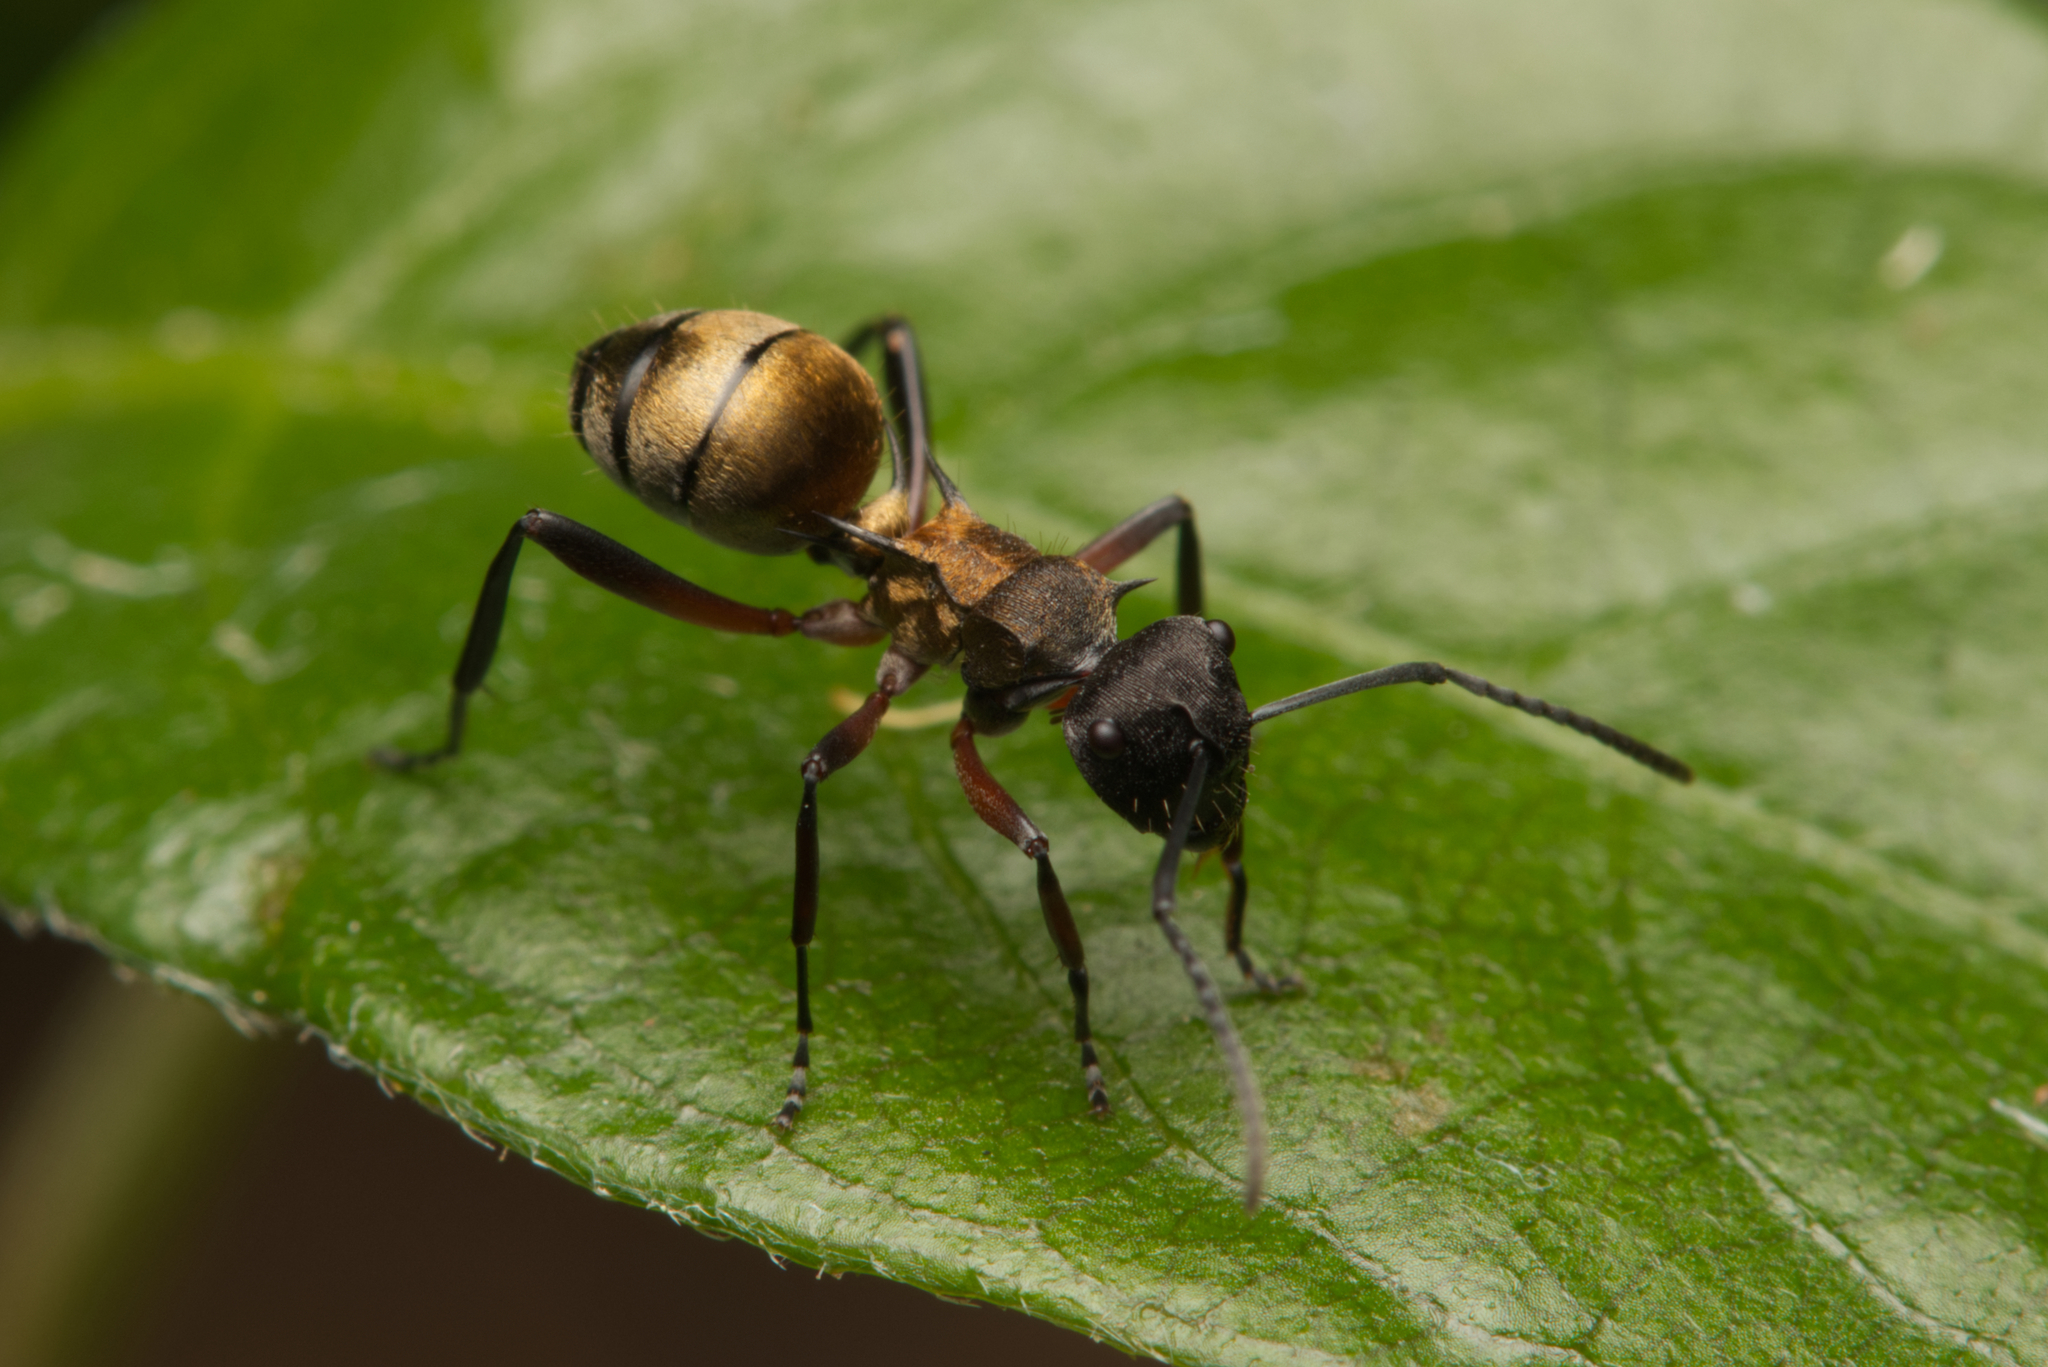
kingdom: Animalia
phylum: Arthropoda
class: Insecta
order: Hymenoptera
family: Formicidae
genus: Polyrhachis
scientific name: Polyrhachis rufifemur
